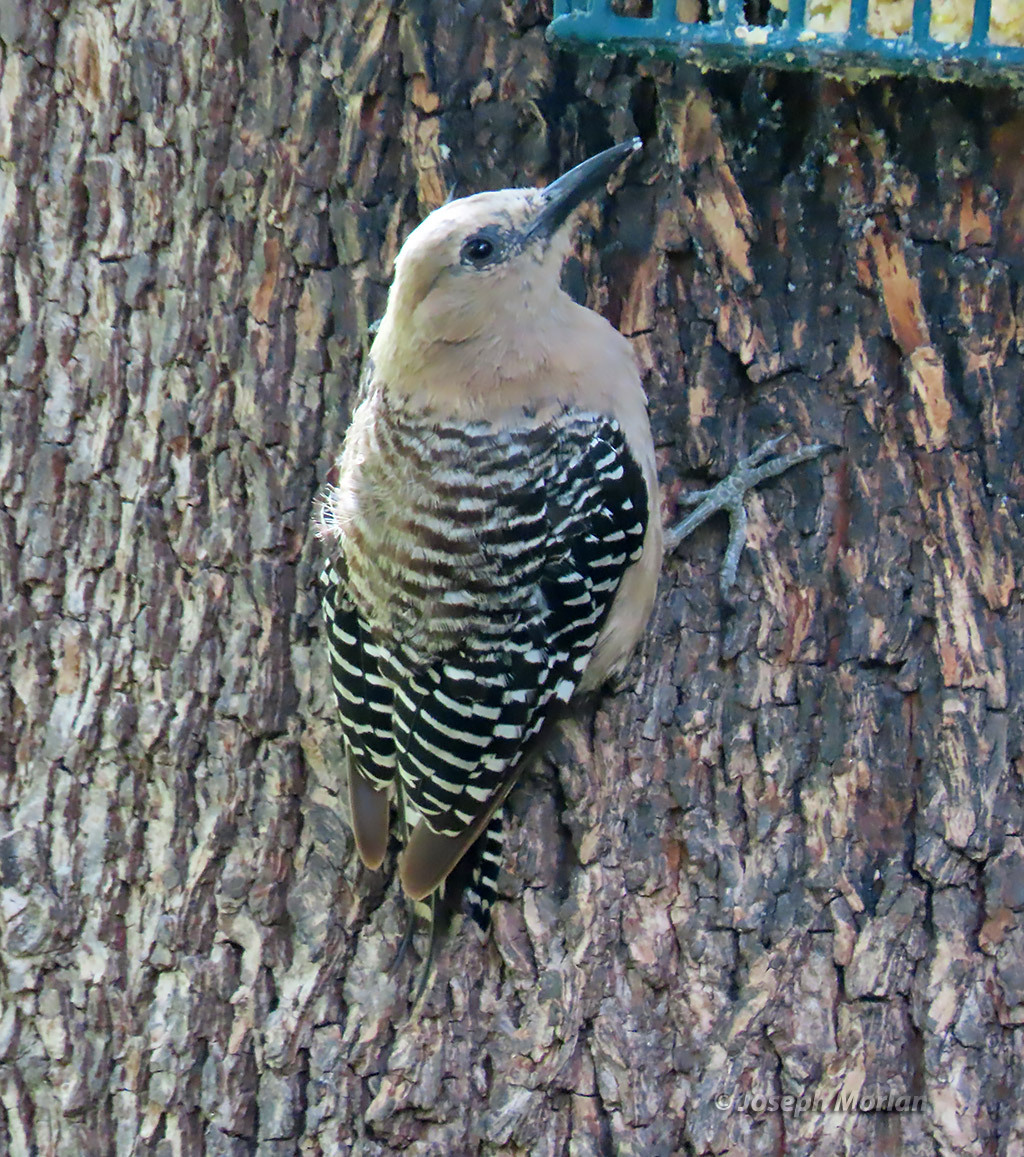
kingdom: Animalia
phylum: Chordata
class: Aves
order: Piciformes
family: Picidae
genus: Melanerpes
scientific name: Melanerpes uropygialis
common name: Gila woodpecker
